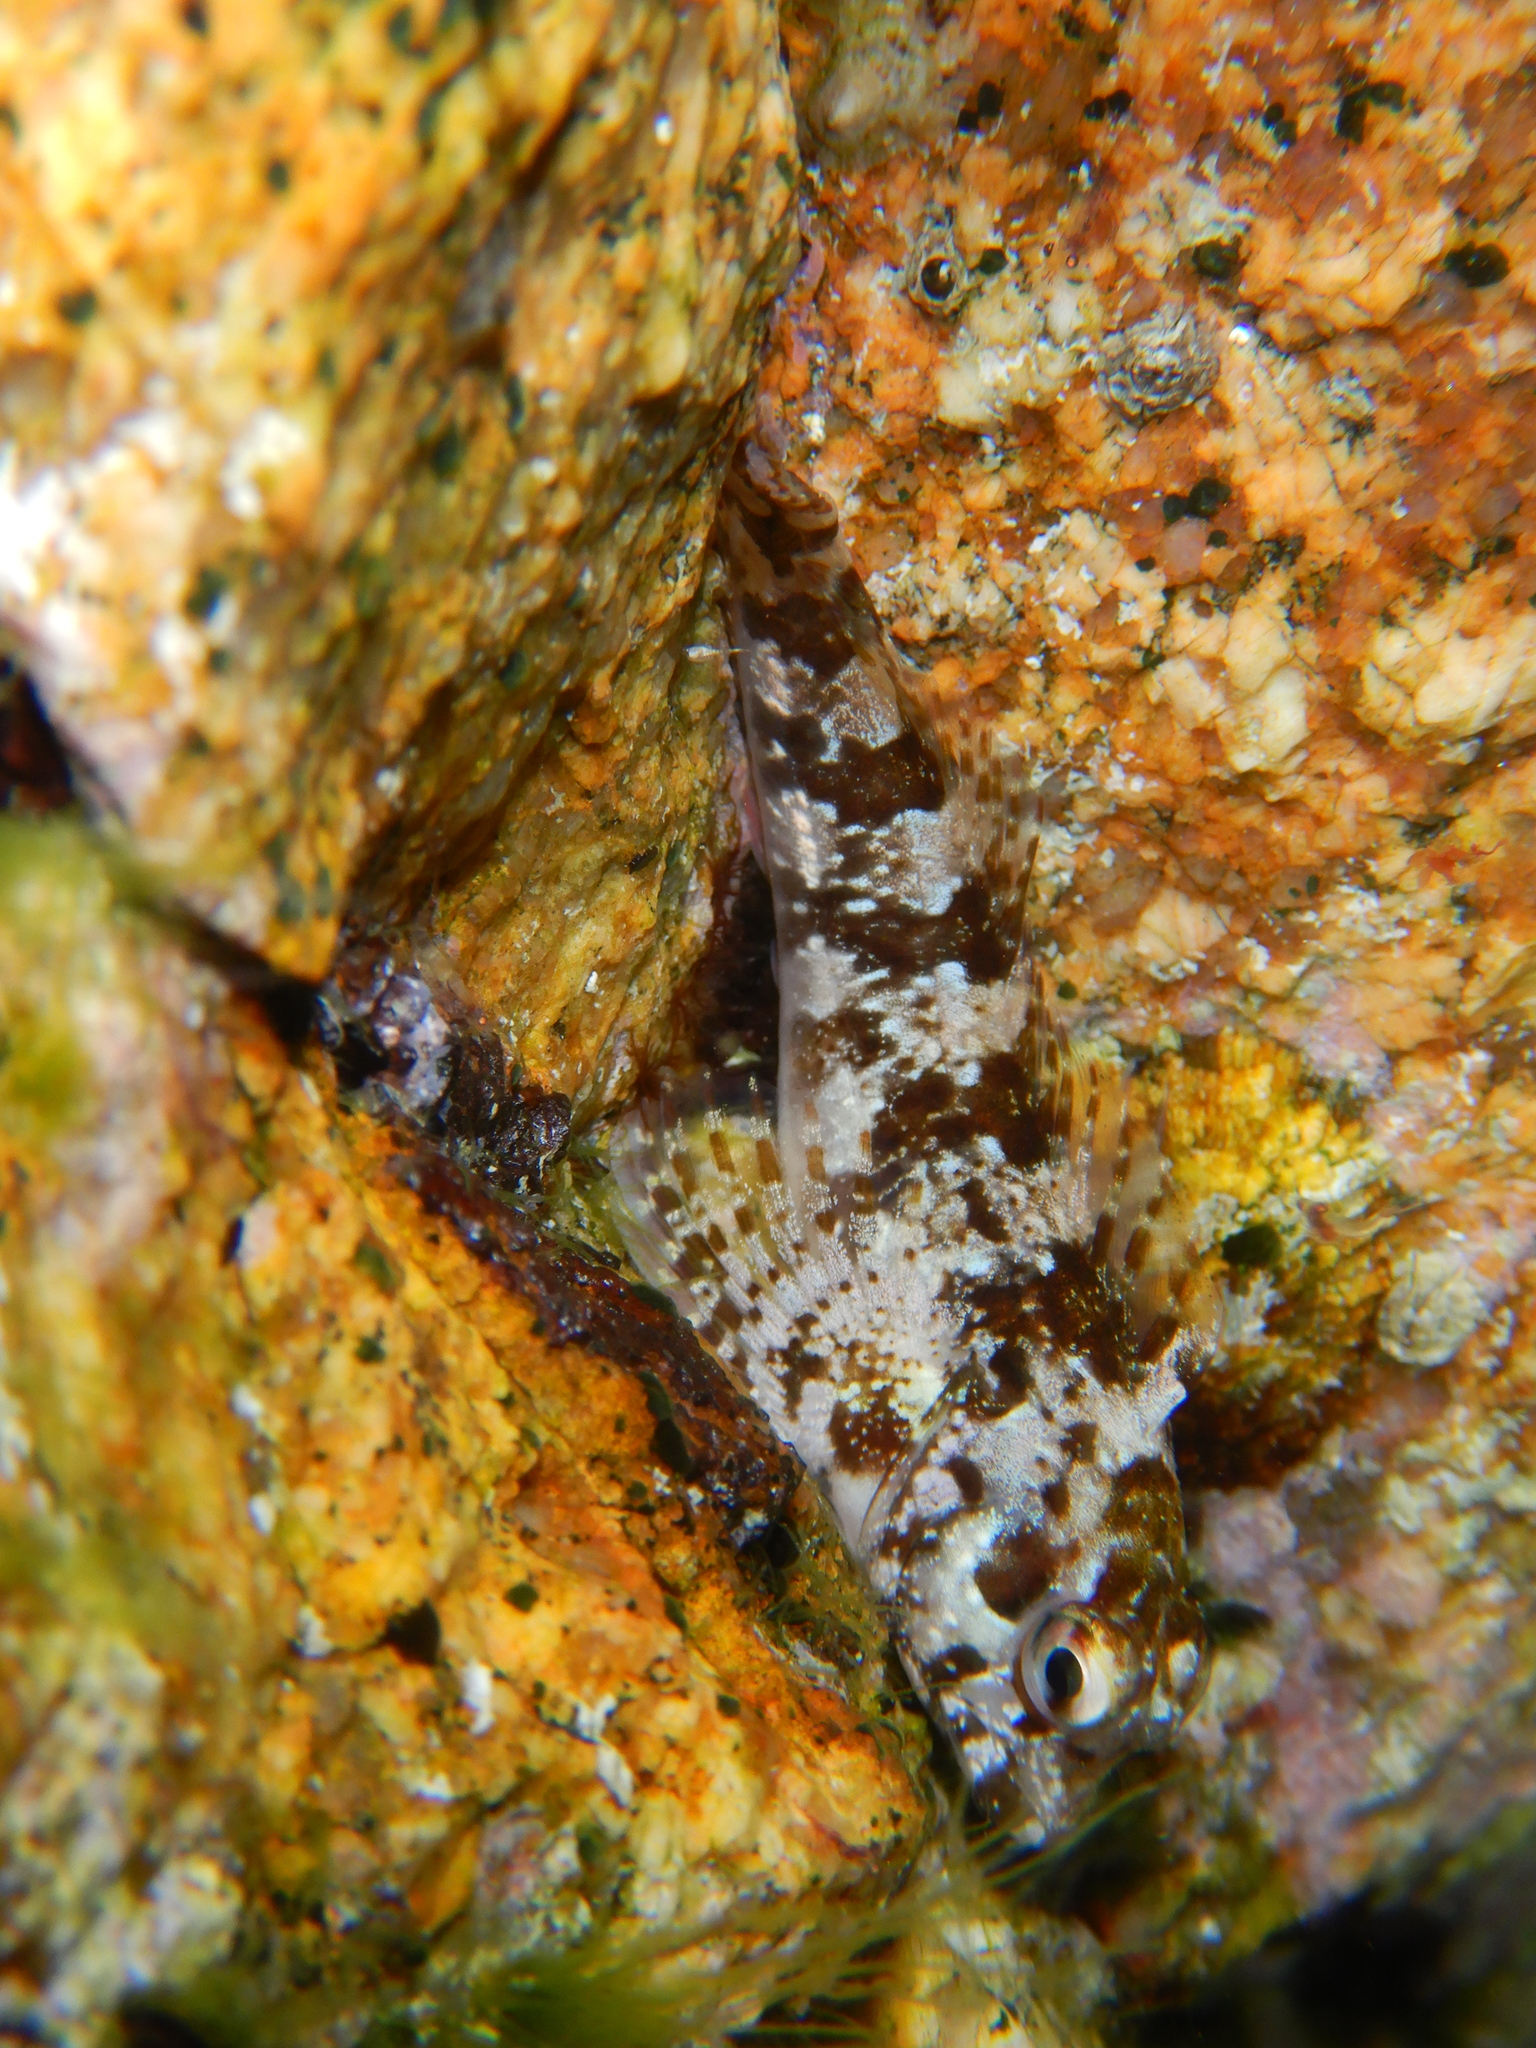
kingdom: Animalia
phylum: Chordata
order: Perciformes
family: Blenniidae
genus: Lipophrys
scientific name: Lipophrys trigloides
